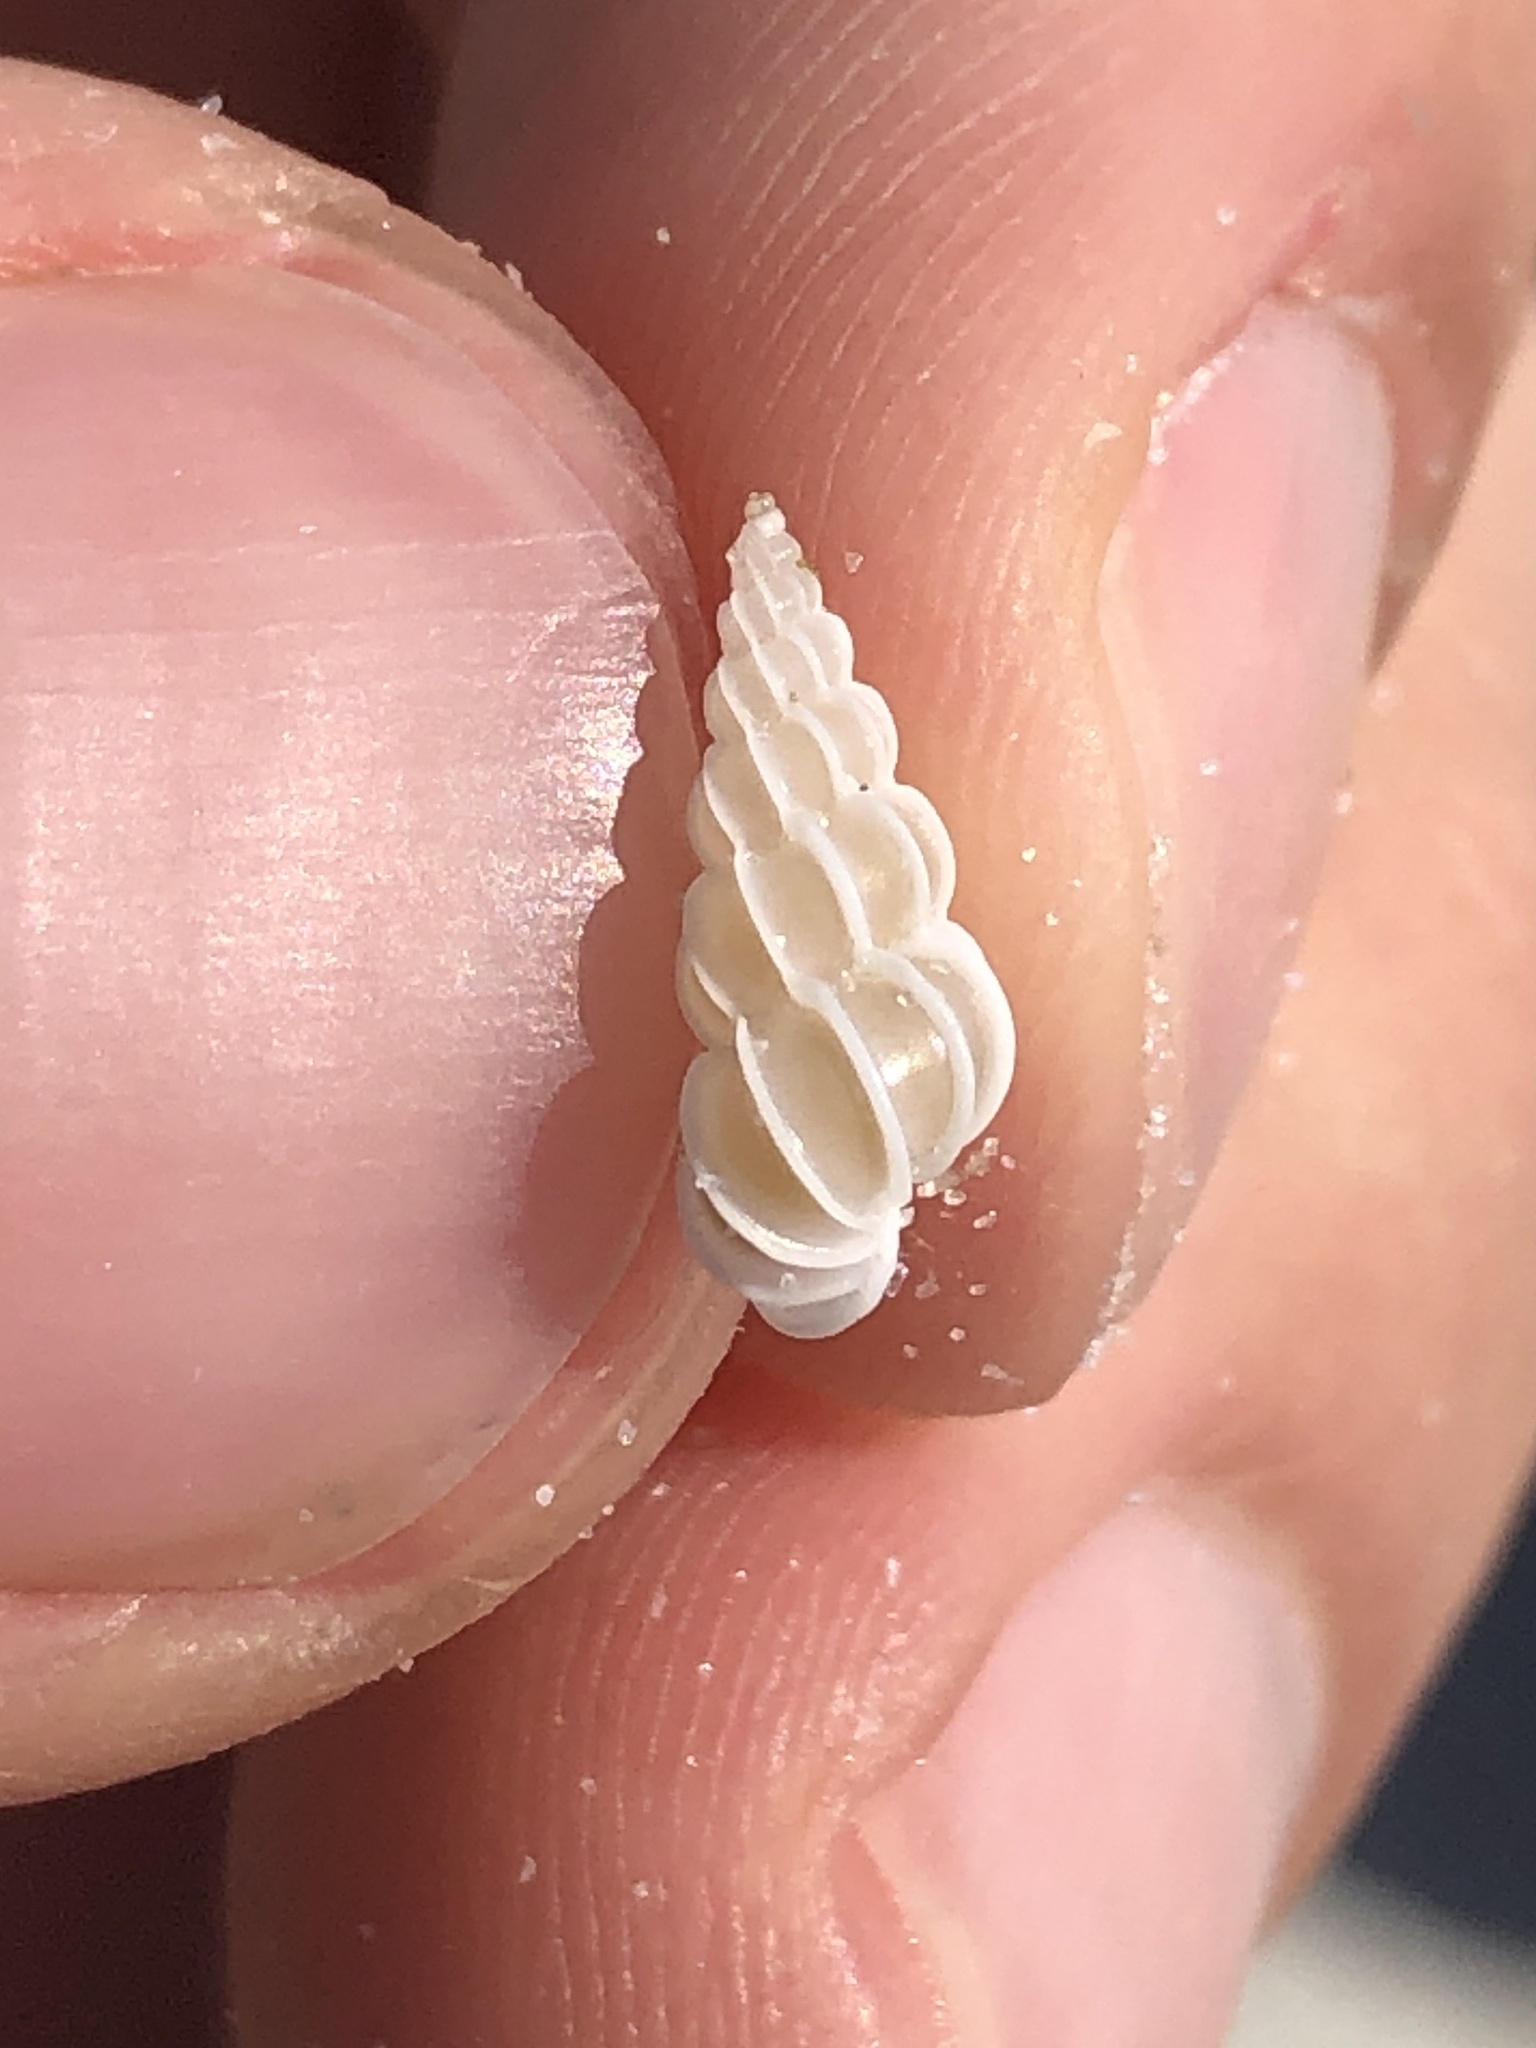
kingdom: Animalia
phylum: Mollusca
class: Gastropoda
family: Epitoniidae
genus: Epitonium
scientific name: Epitonium humphreysii
